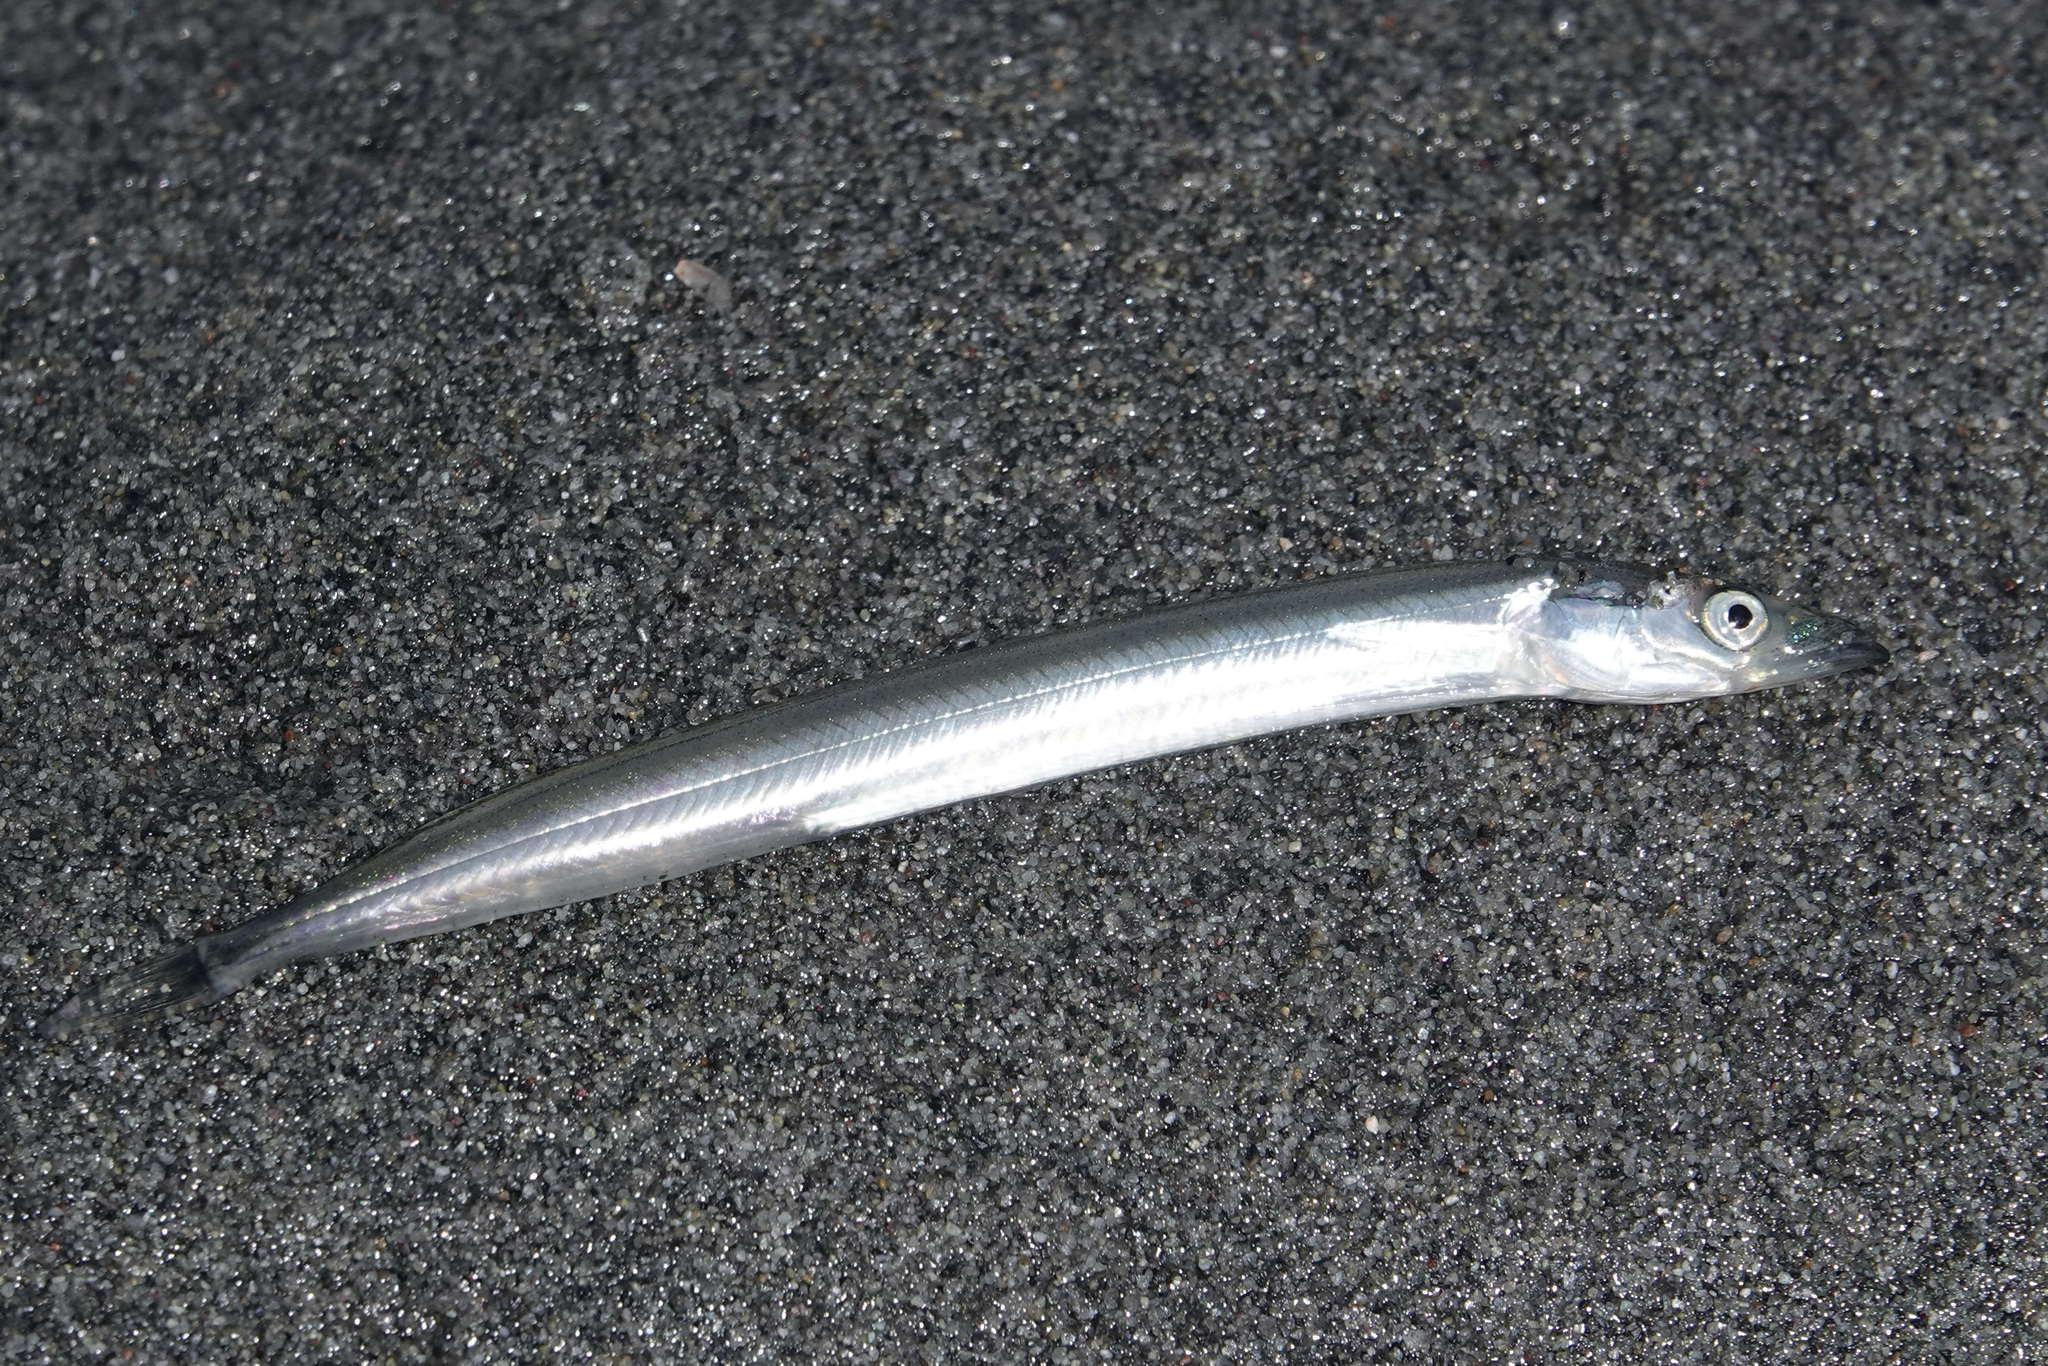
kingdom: Animalia
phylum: Chordata
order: Perciformes
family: Ammodytidae
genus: Ammodytes
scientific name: Ammodytes personatus
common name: Japanese sand lance
